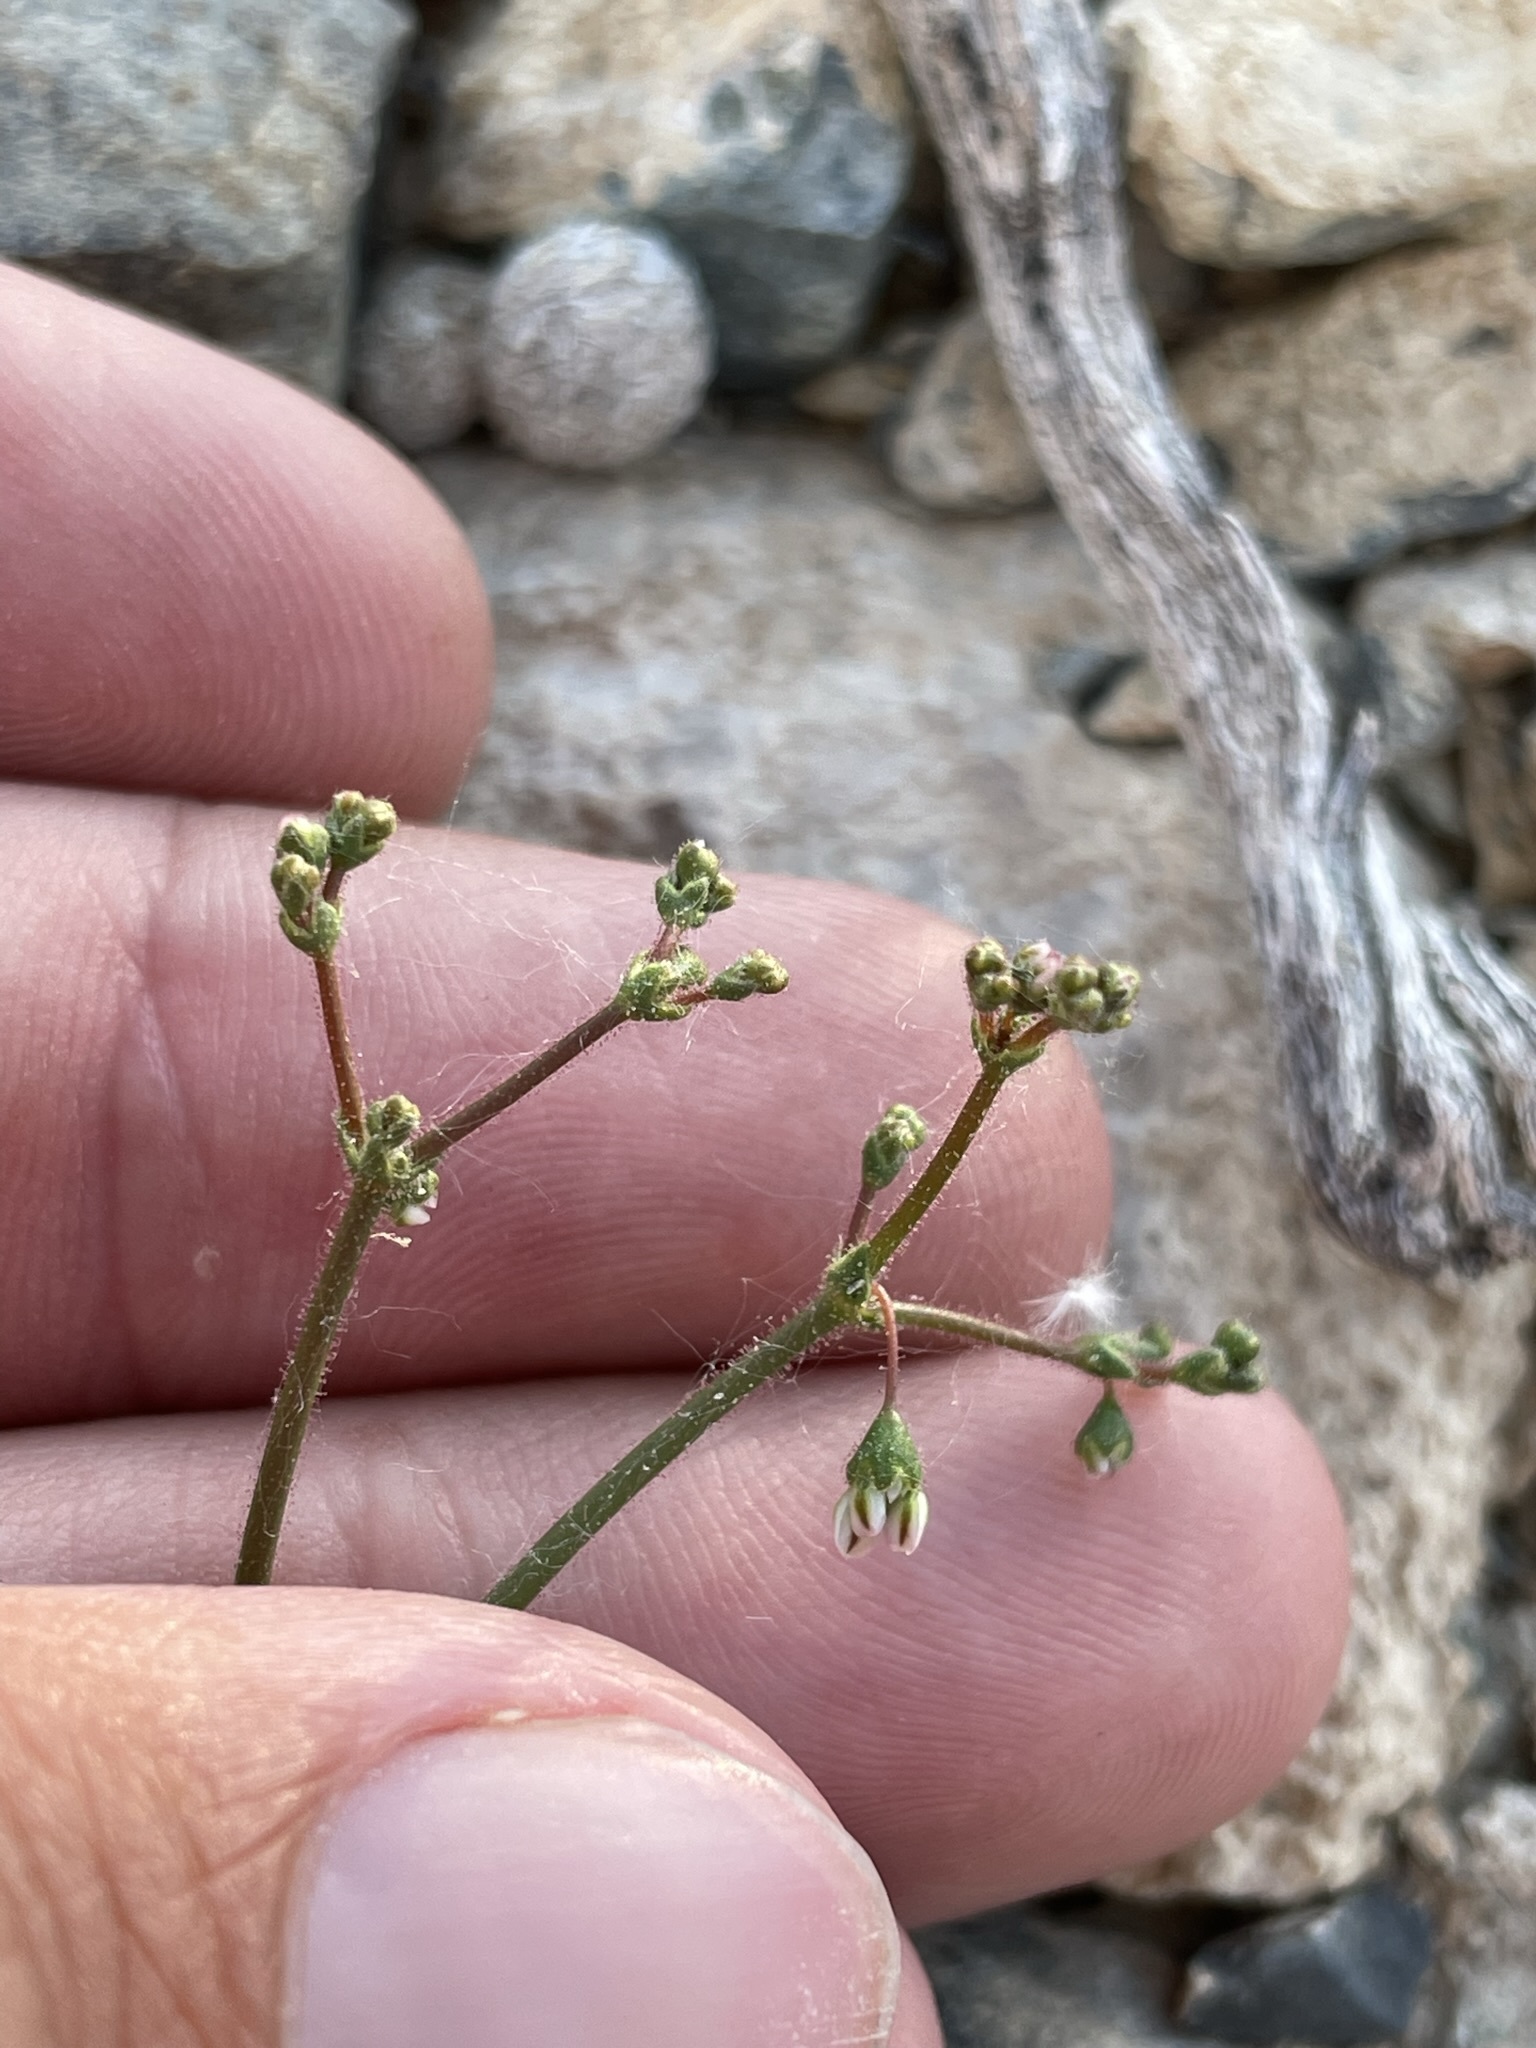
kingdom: Plantae
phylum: Tracheophyta
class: Magnoliopsida
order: Caryophyllales
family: Polygonaceae
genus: Eriogonum
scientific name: Eriogonum brachypodum
